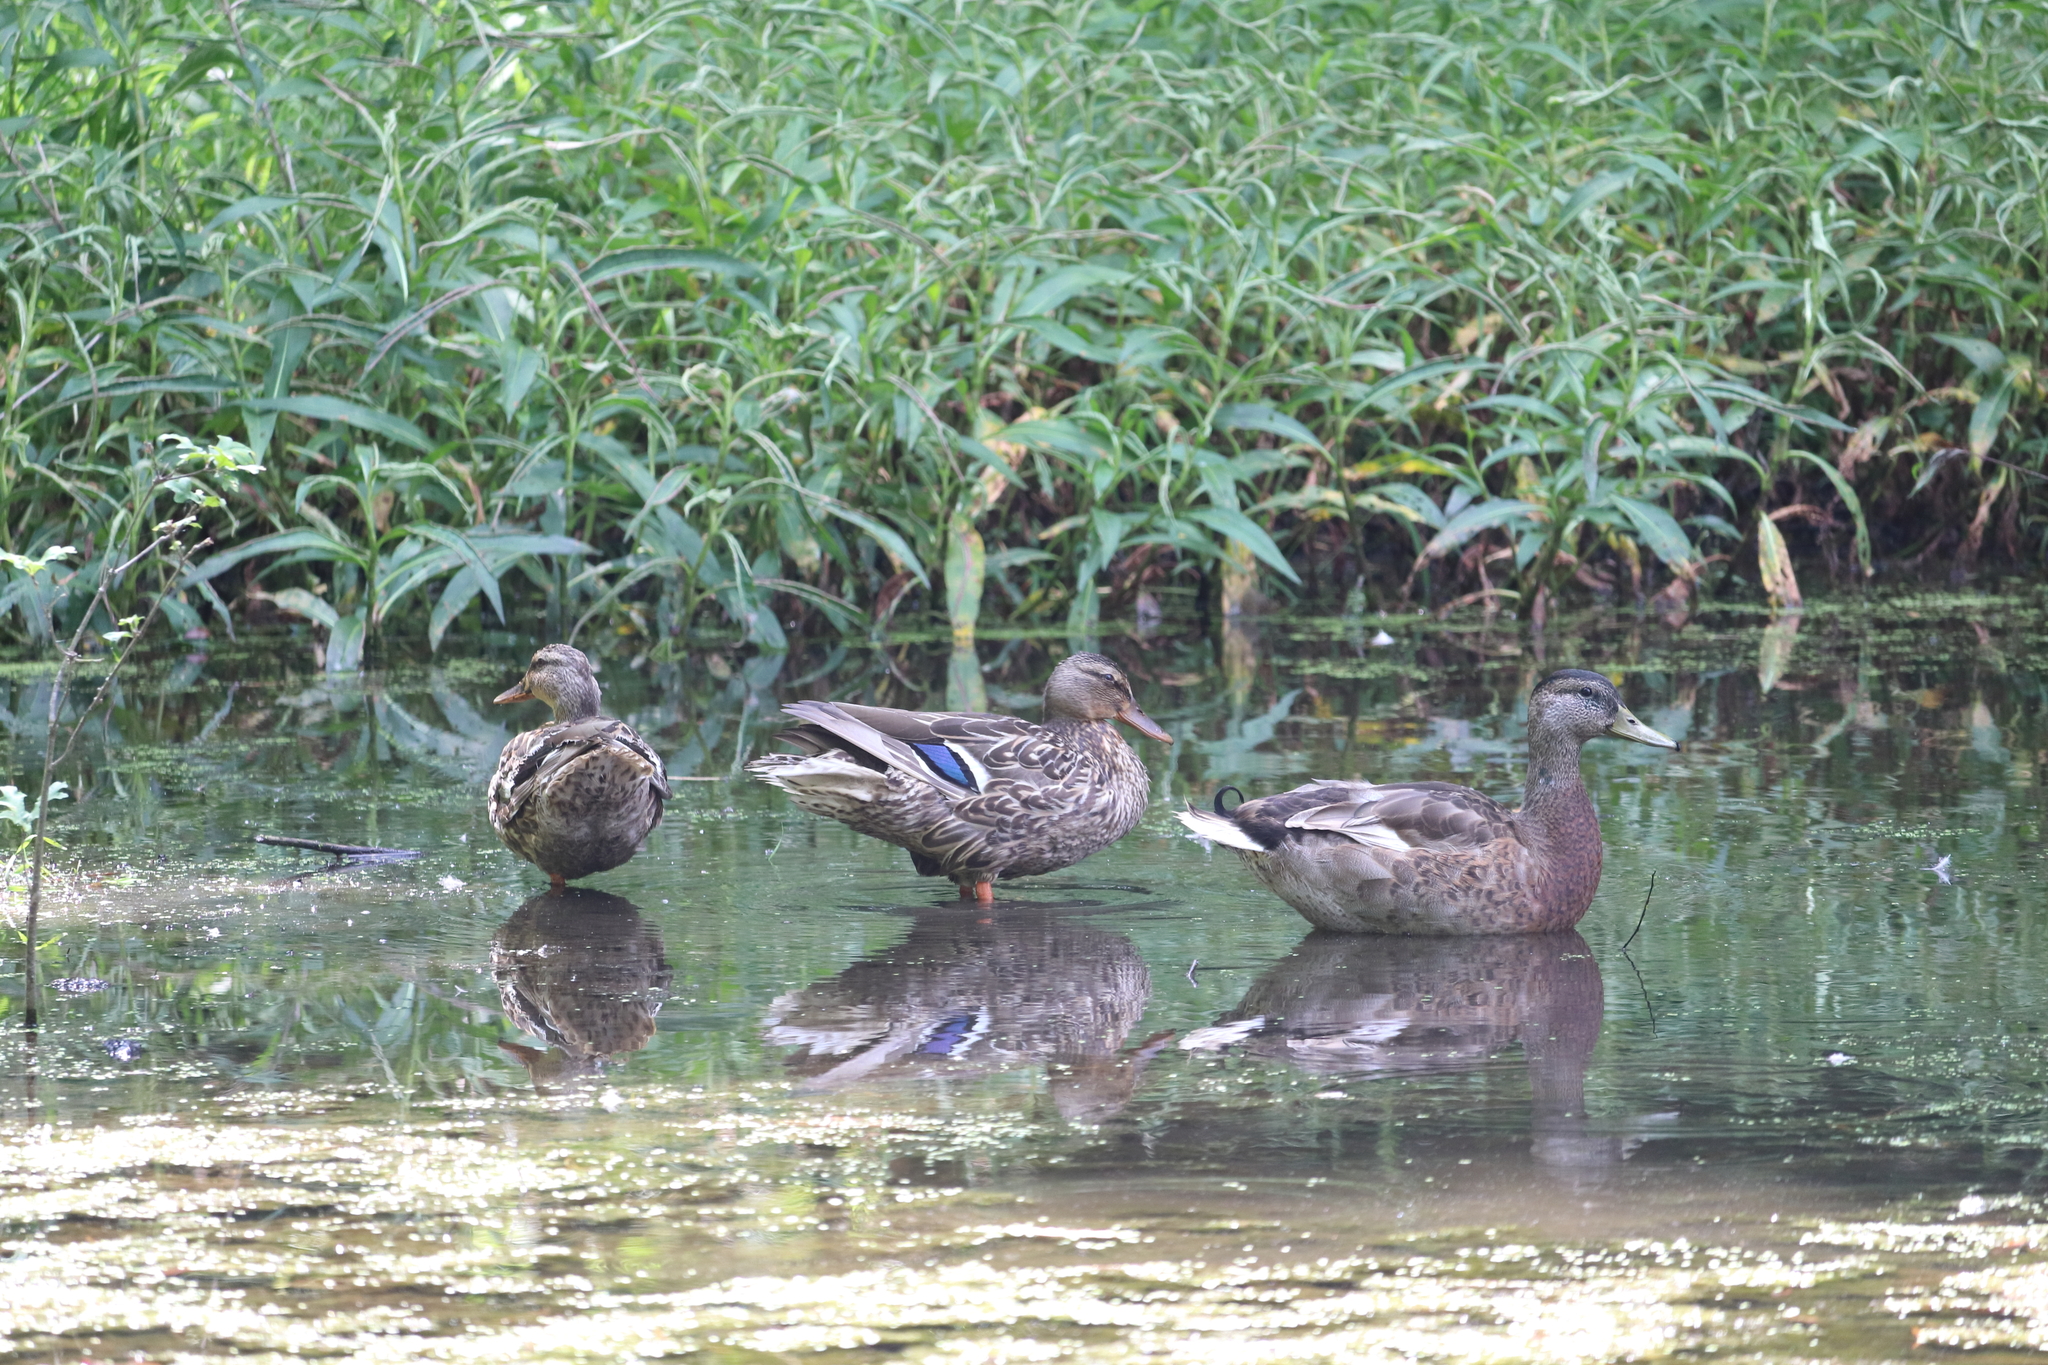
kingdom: Animalia
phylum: Chordata
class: Aves
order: Anseriformes
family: Anatidae
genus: Anas
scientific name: Anas platyrhynchos
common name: Mallard
